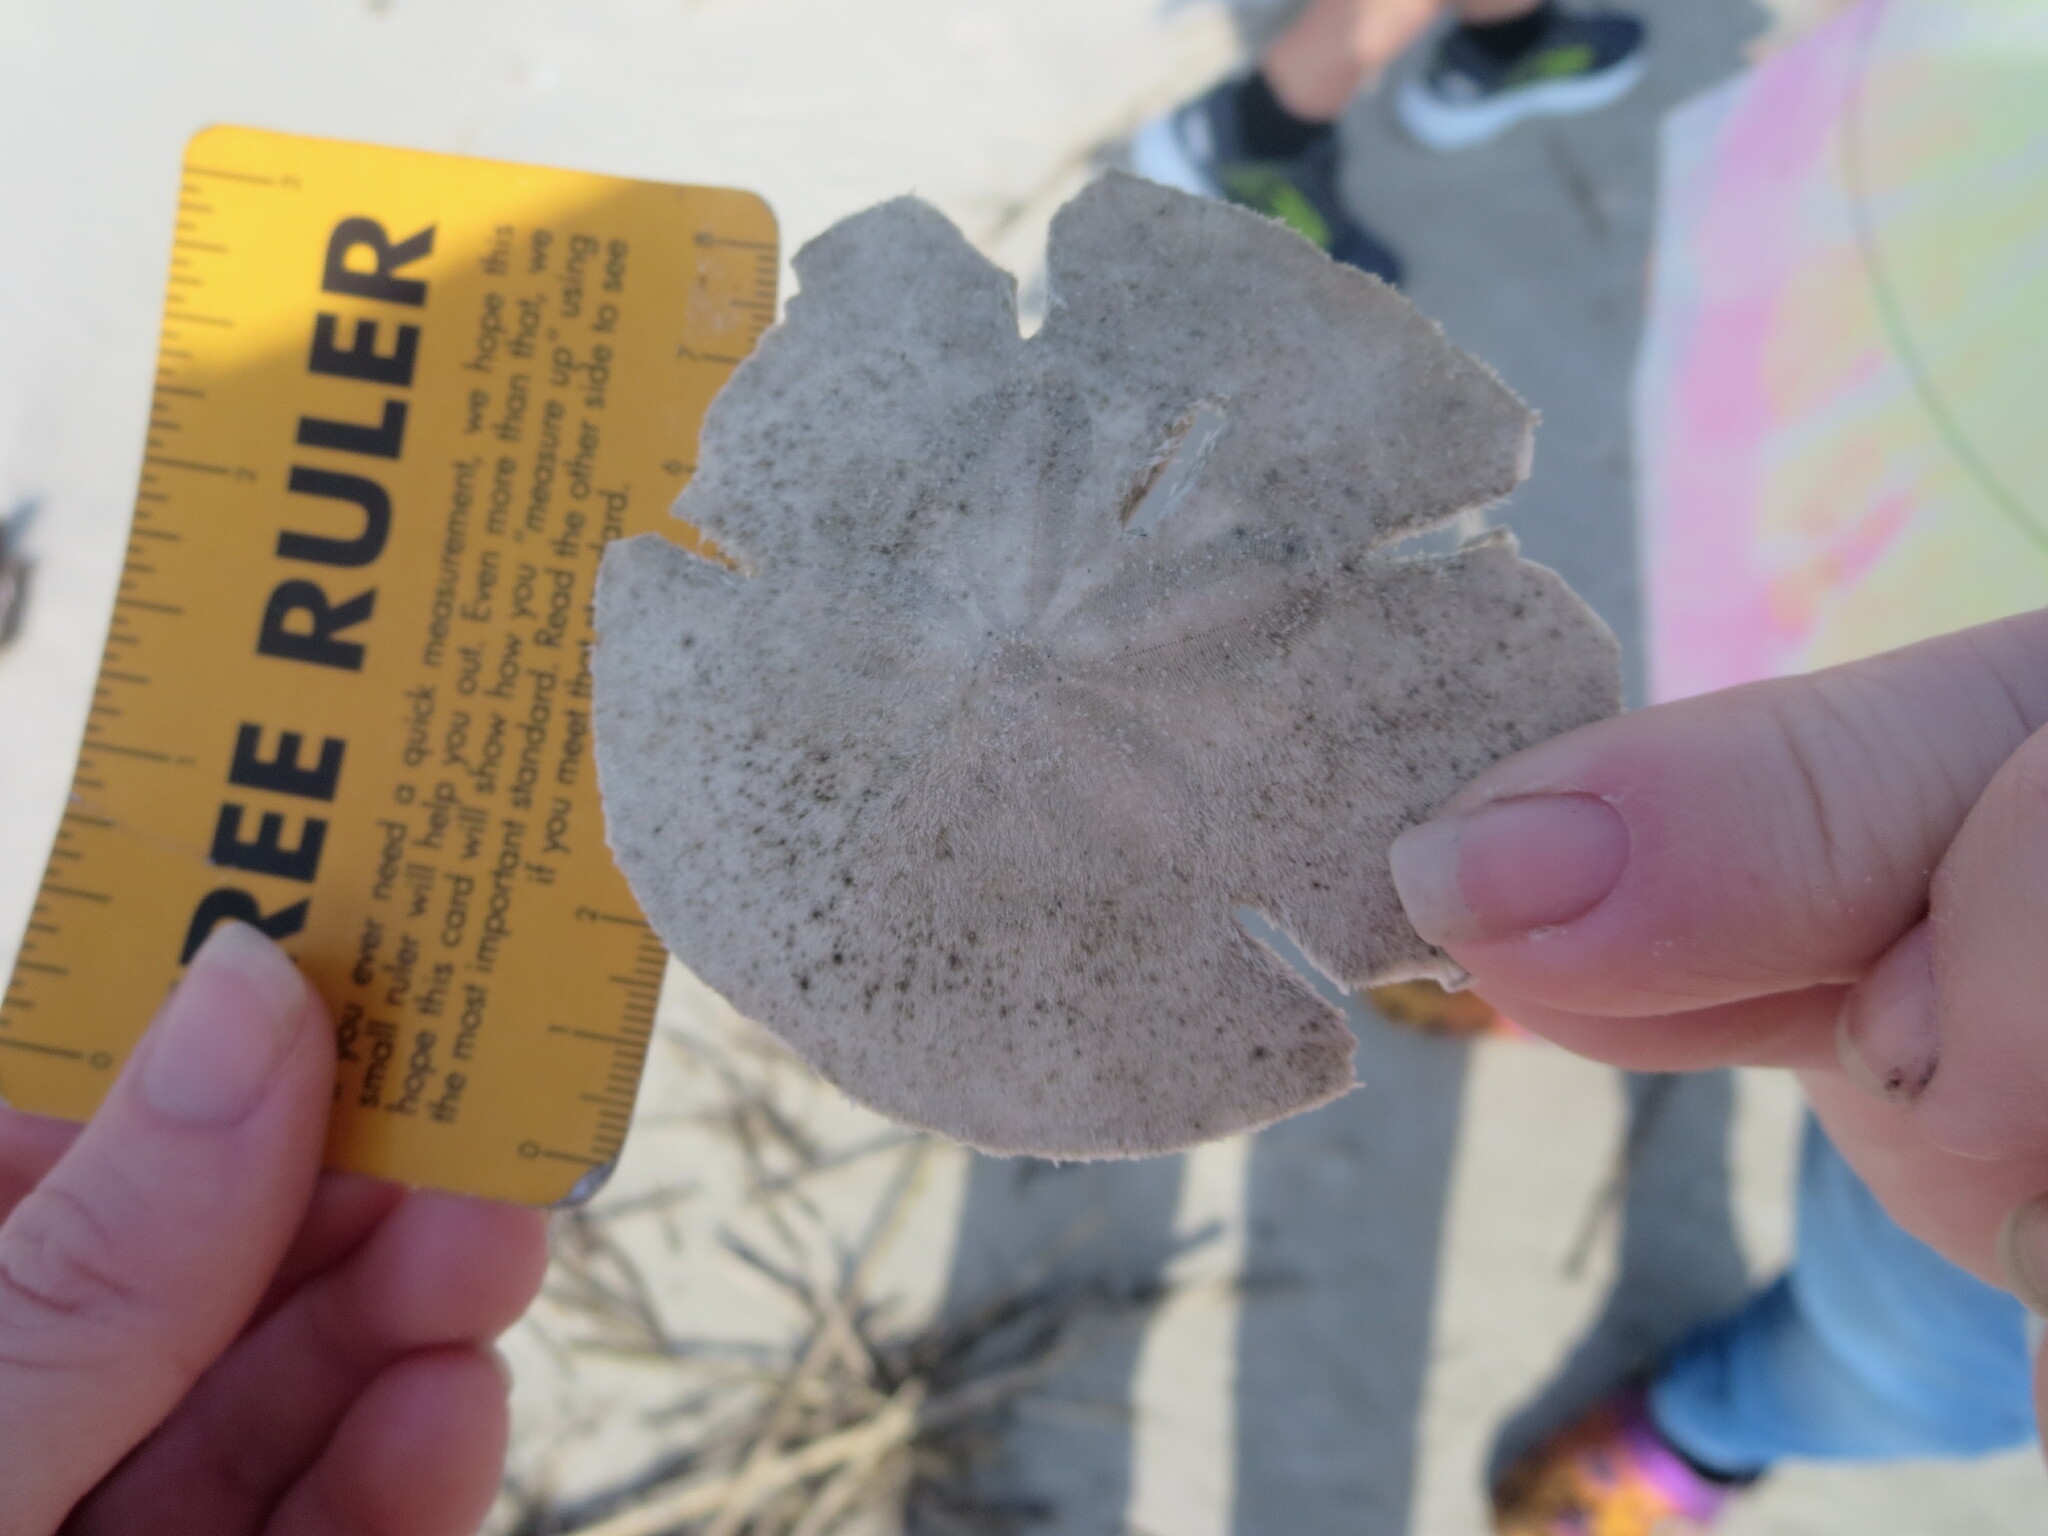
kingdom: Animalia
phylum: Echinodermata
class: Echinoidea
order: Echinolampadacea
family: Mellitidae
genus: Mellita
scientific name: Mellita isometra
